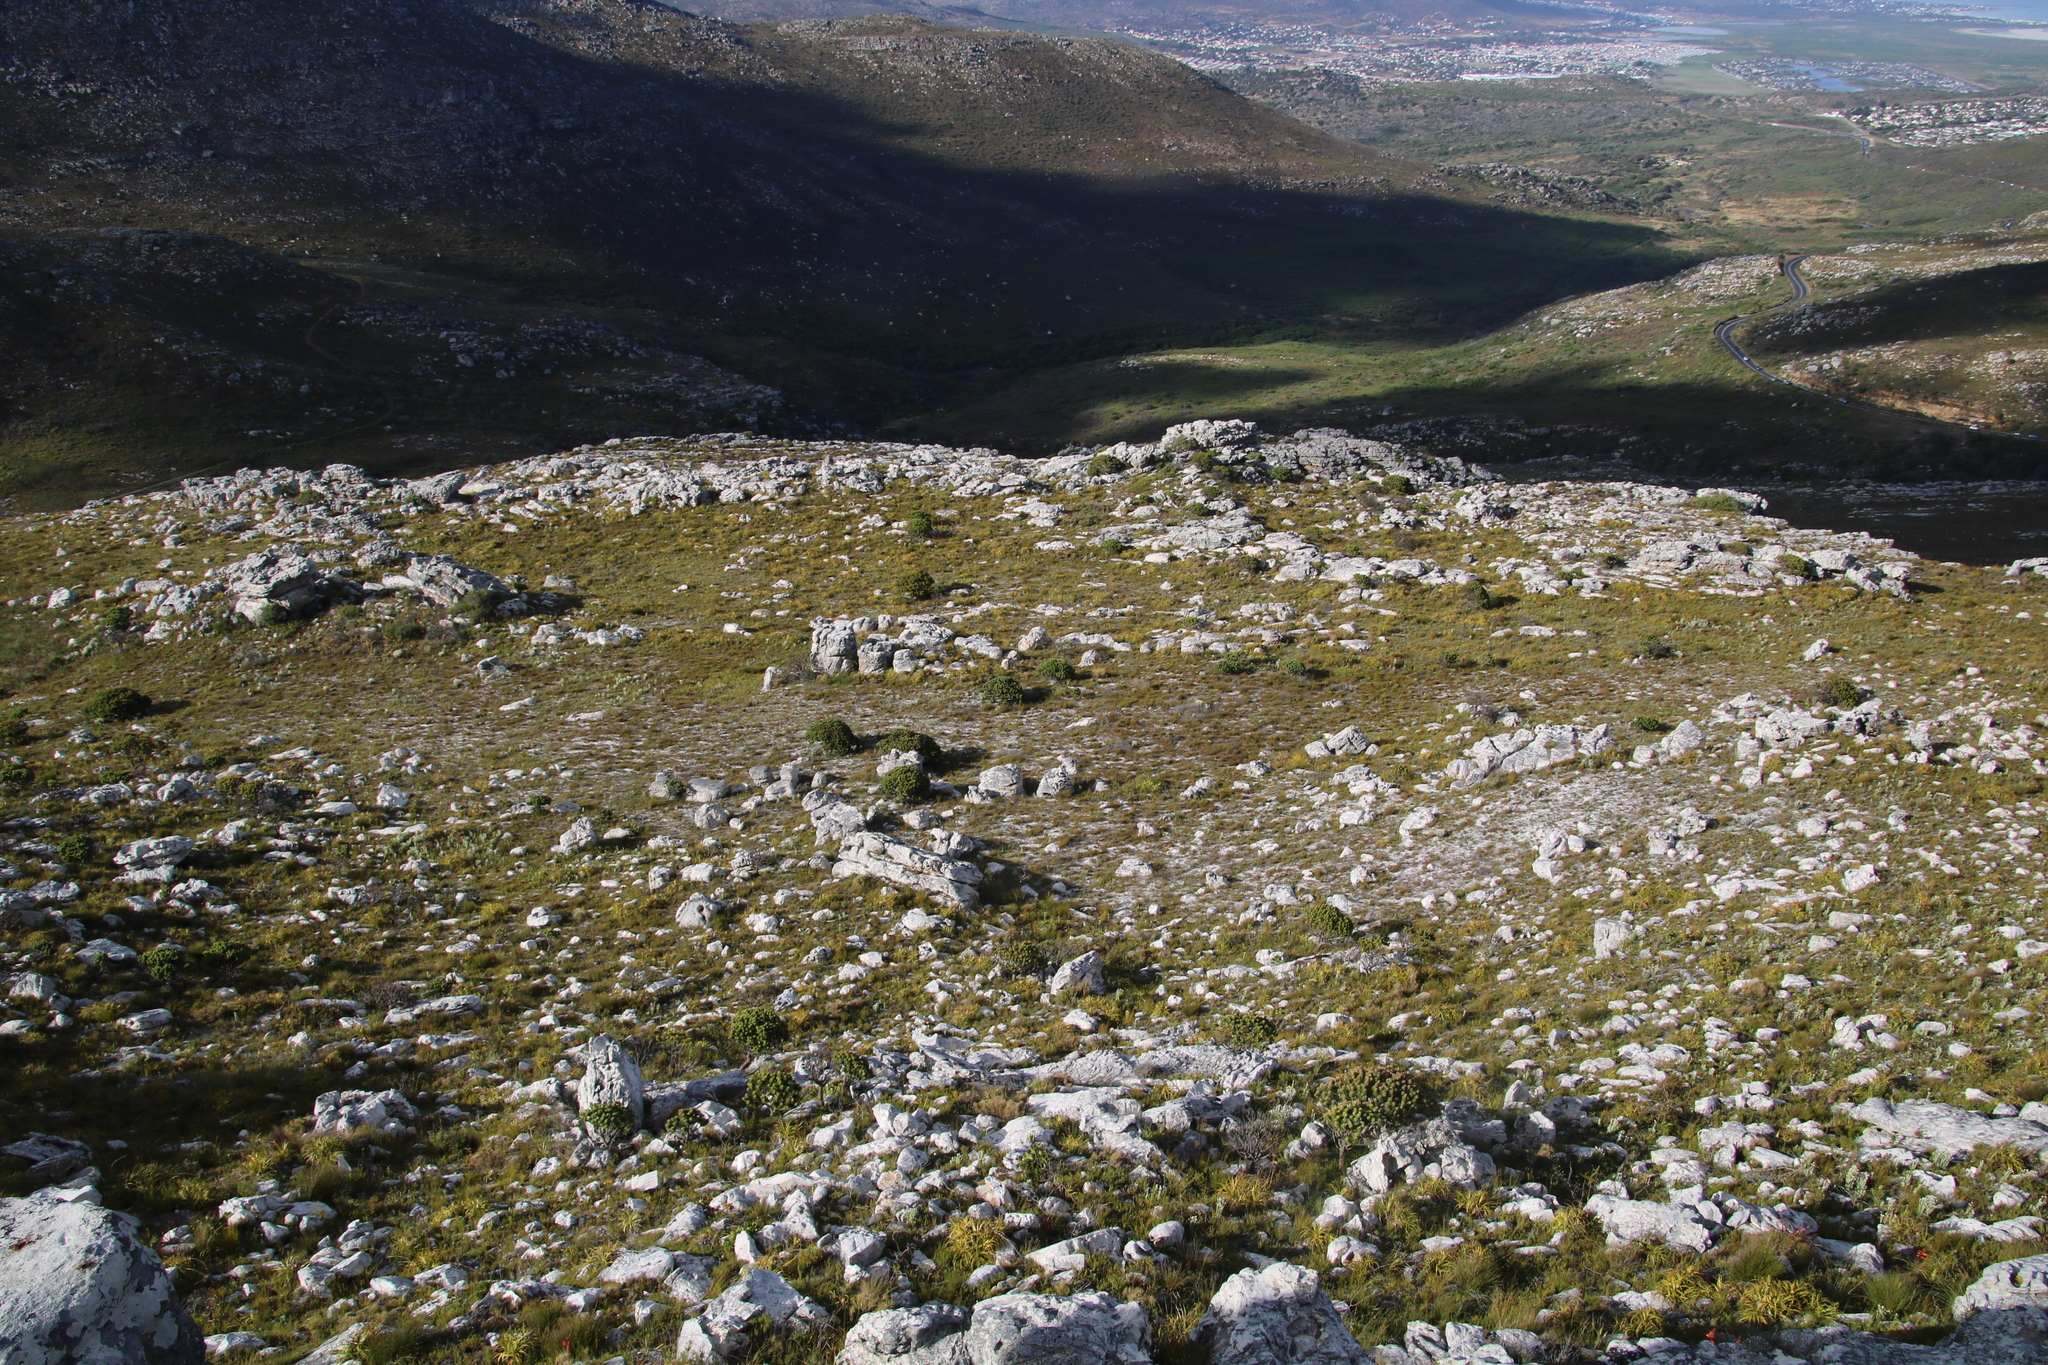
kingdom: Plantae
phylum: Tracheophyta
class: Magnoliopsida
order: Proteales
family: Proteaceae
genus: Mimetes
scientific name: Mimetes fimbriifolius
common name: Fringed bottlebrush
